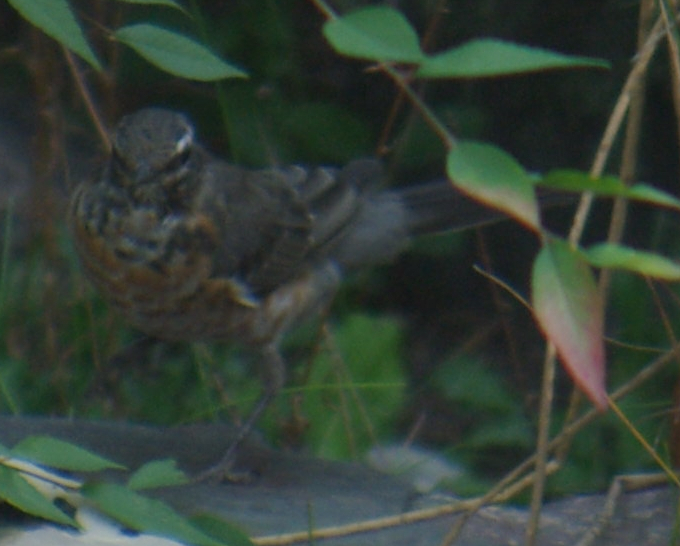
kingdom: Animalia
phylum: Chordata
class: Aves
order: Passeriformes
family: Turdidae
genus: Turdus
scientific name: Turdus migratorius
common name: American robin
